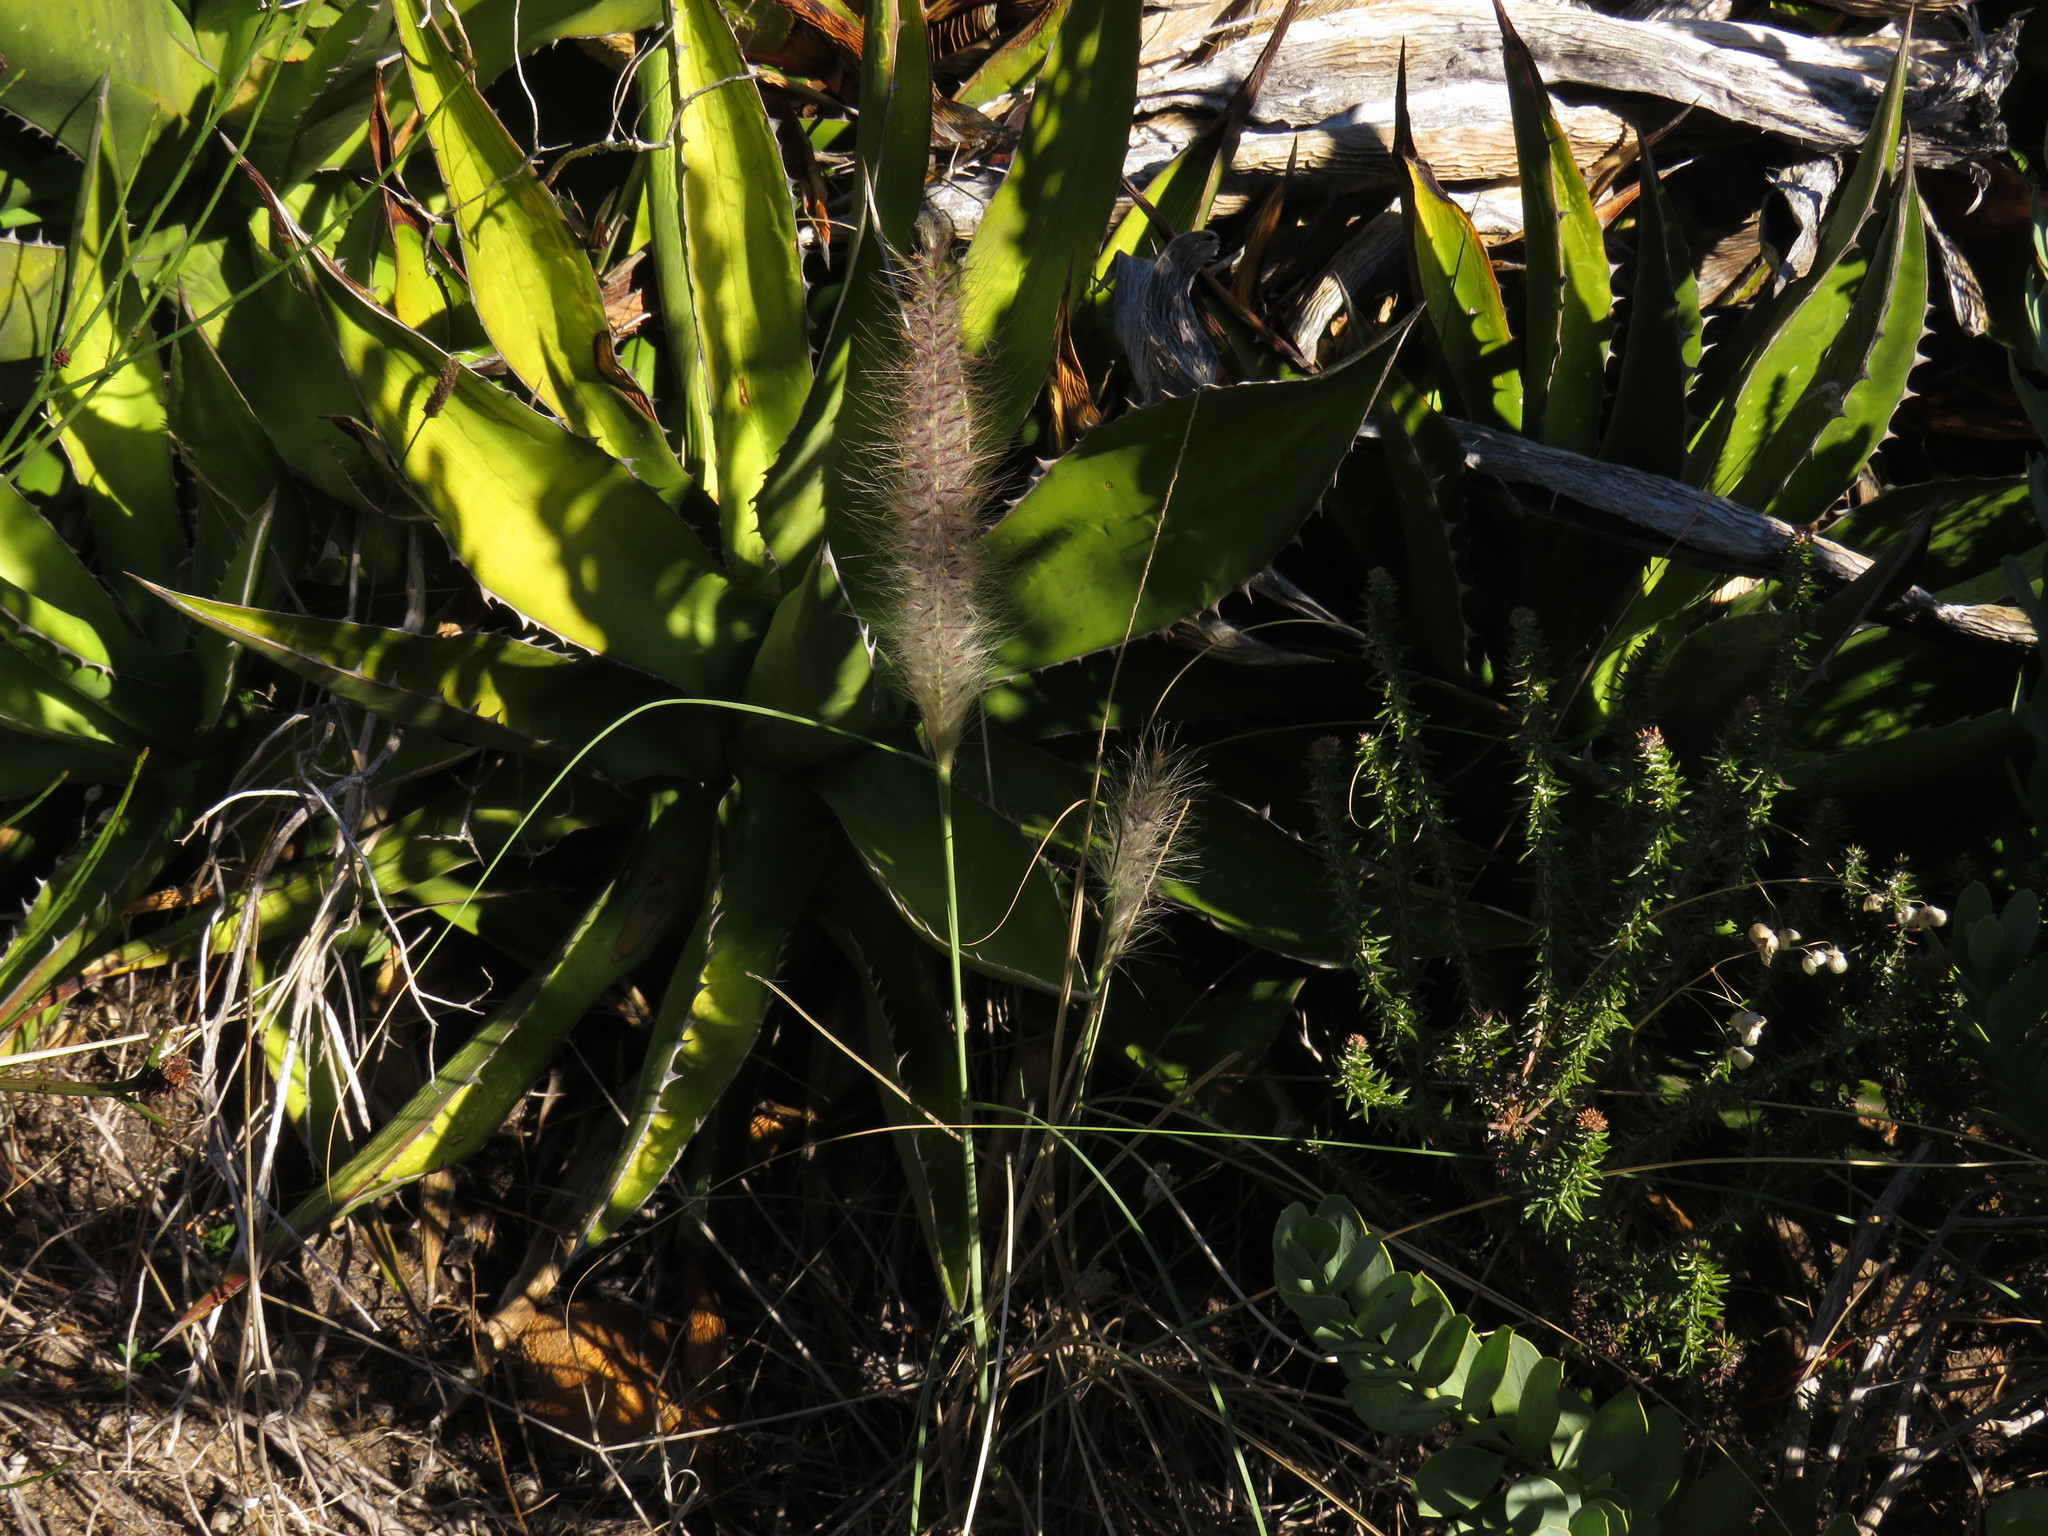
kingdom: Plantae
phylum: Tracheophyta
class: Liliopsida
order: Poales
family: Poaceae
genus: Cenchrus
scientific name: Cenchrus setaceus
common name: Crimson fountaingrass
